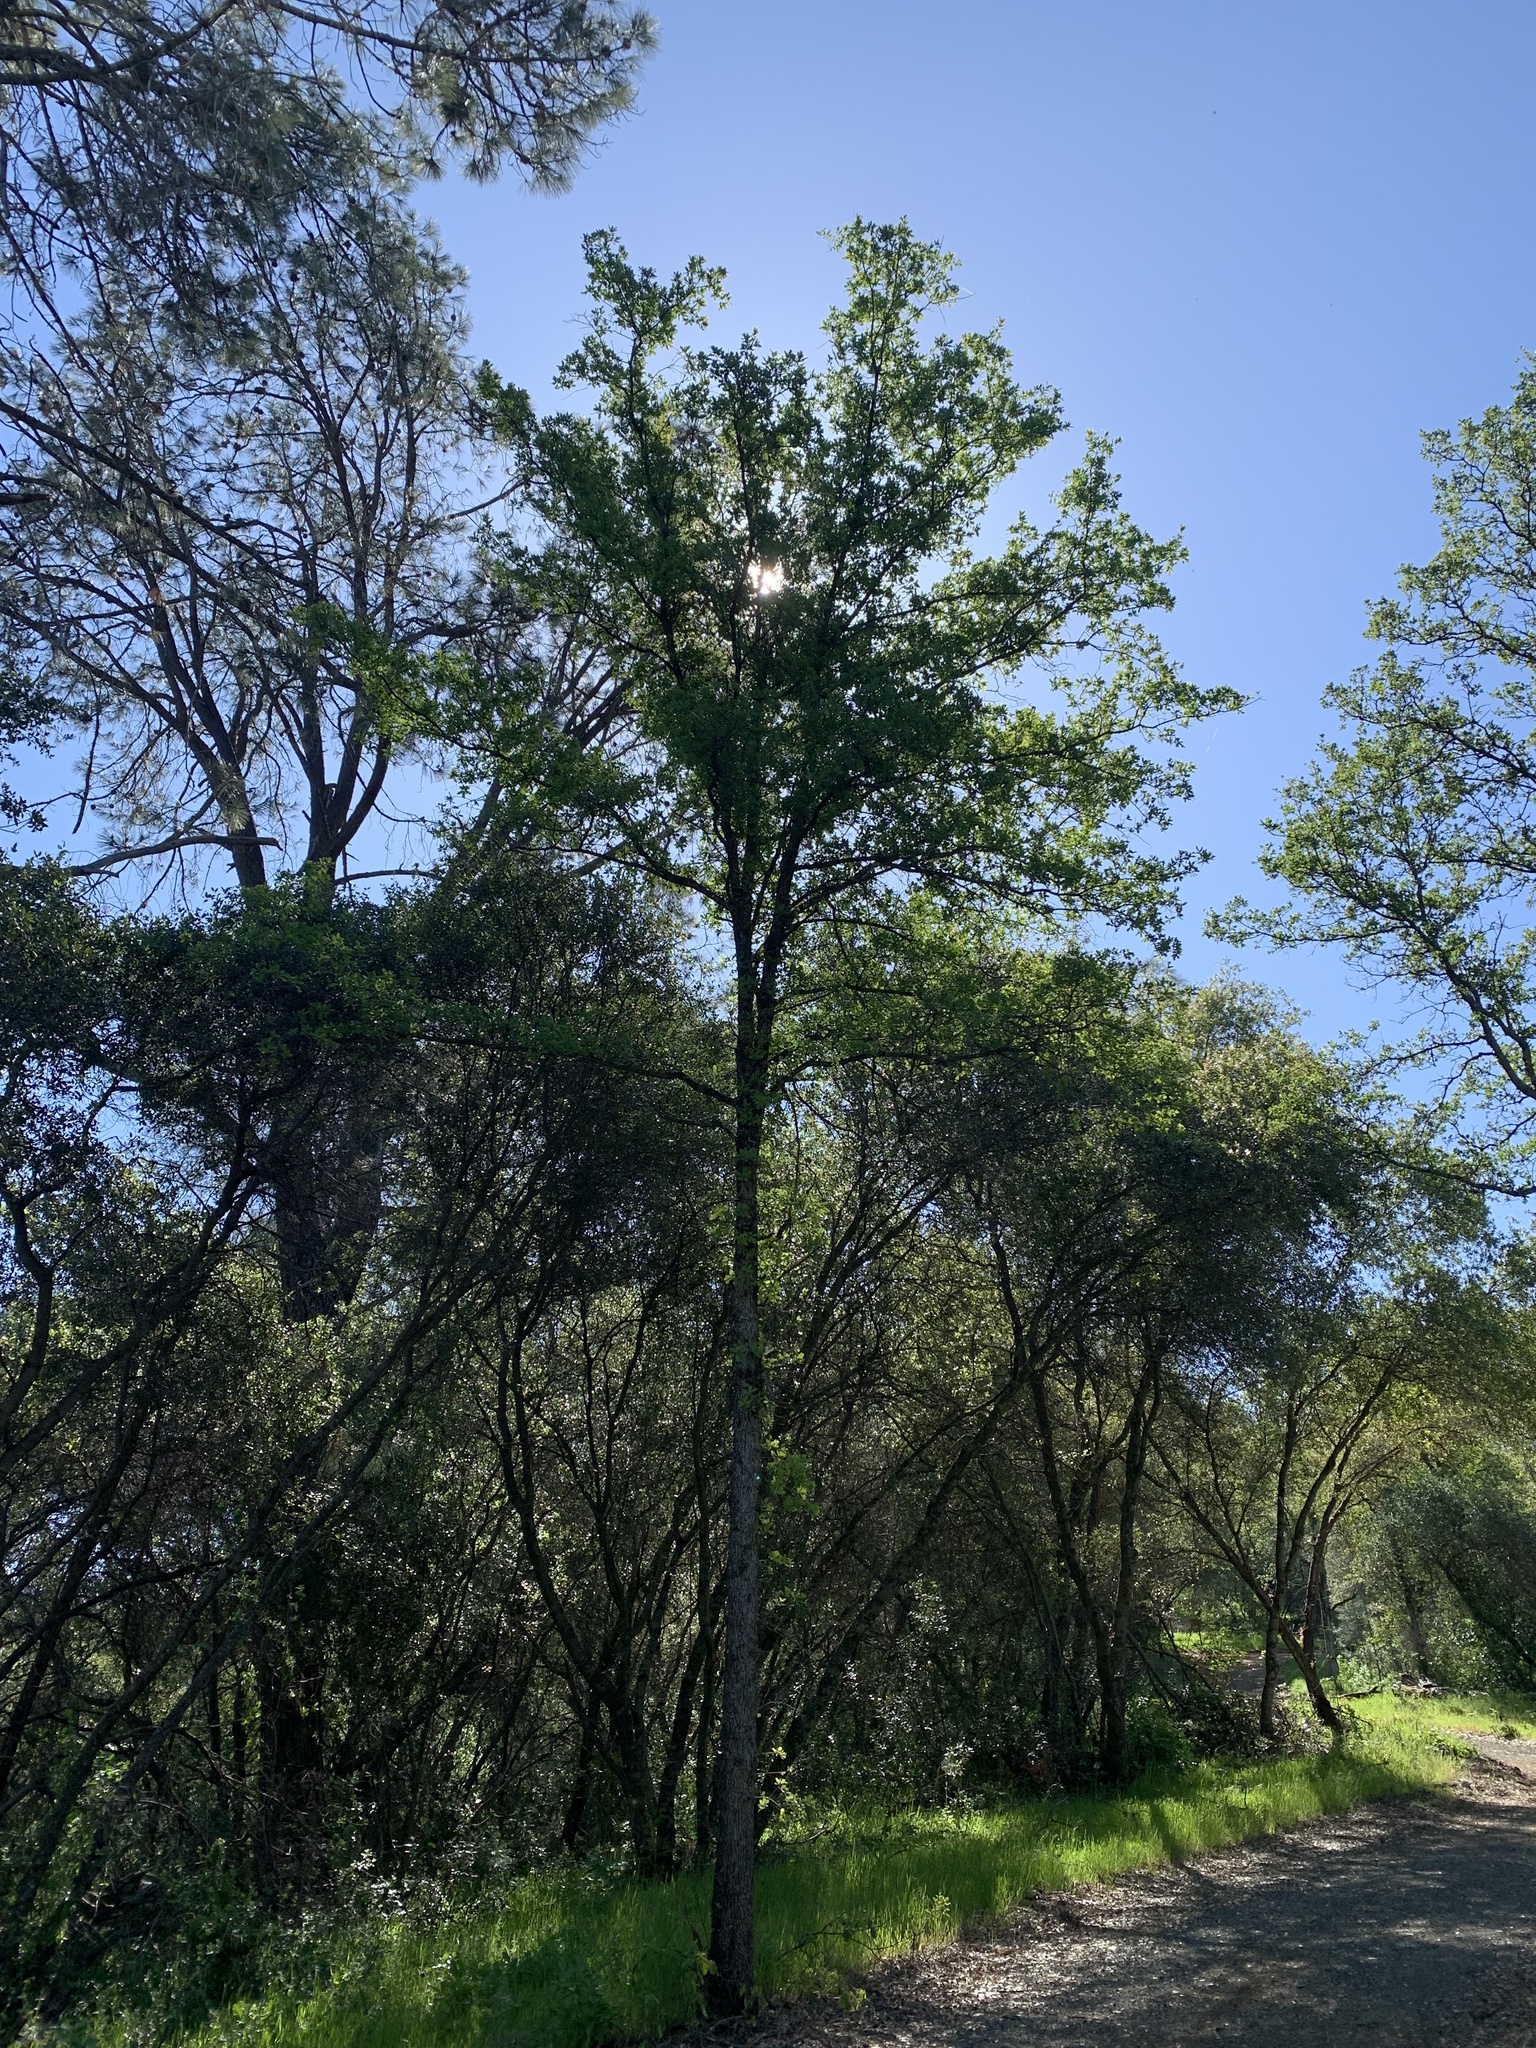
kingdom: Plantae
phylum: Tracheophyta
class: Magnoliopsida
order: Fagales
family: Fagaceae
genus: Quercus
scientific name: Quercus douglasii
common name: Blue oak
